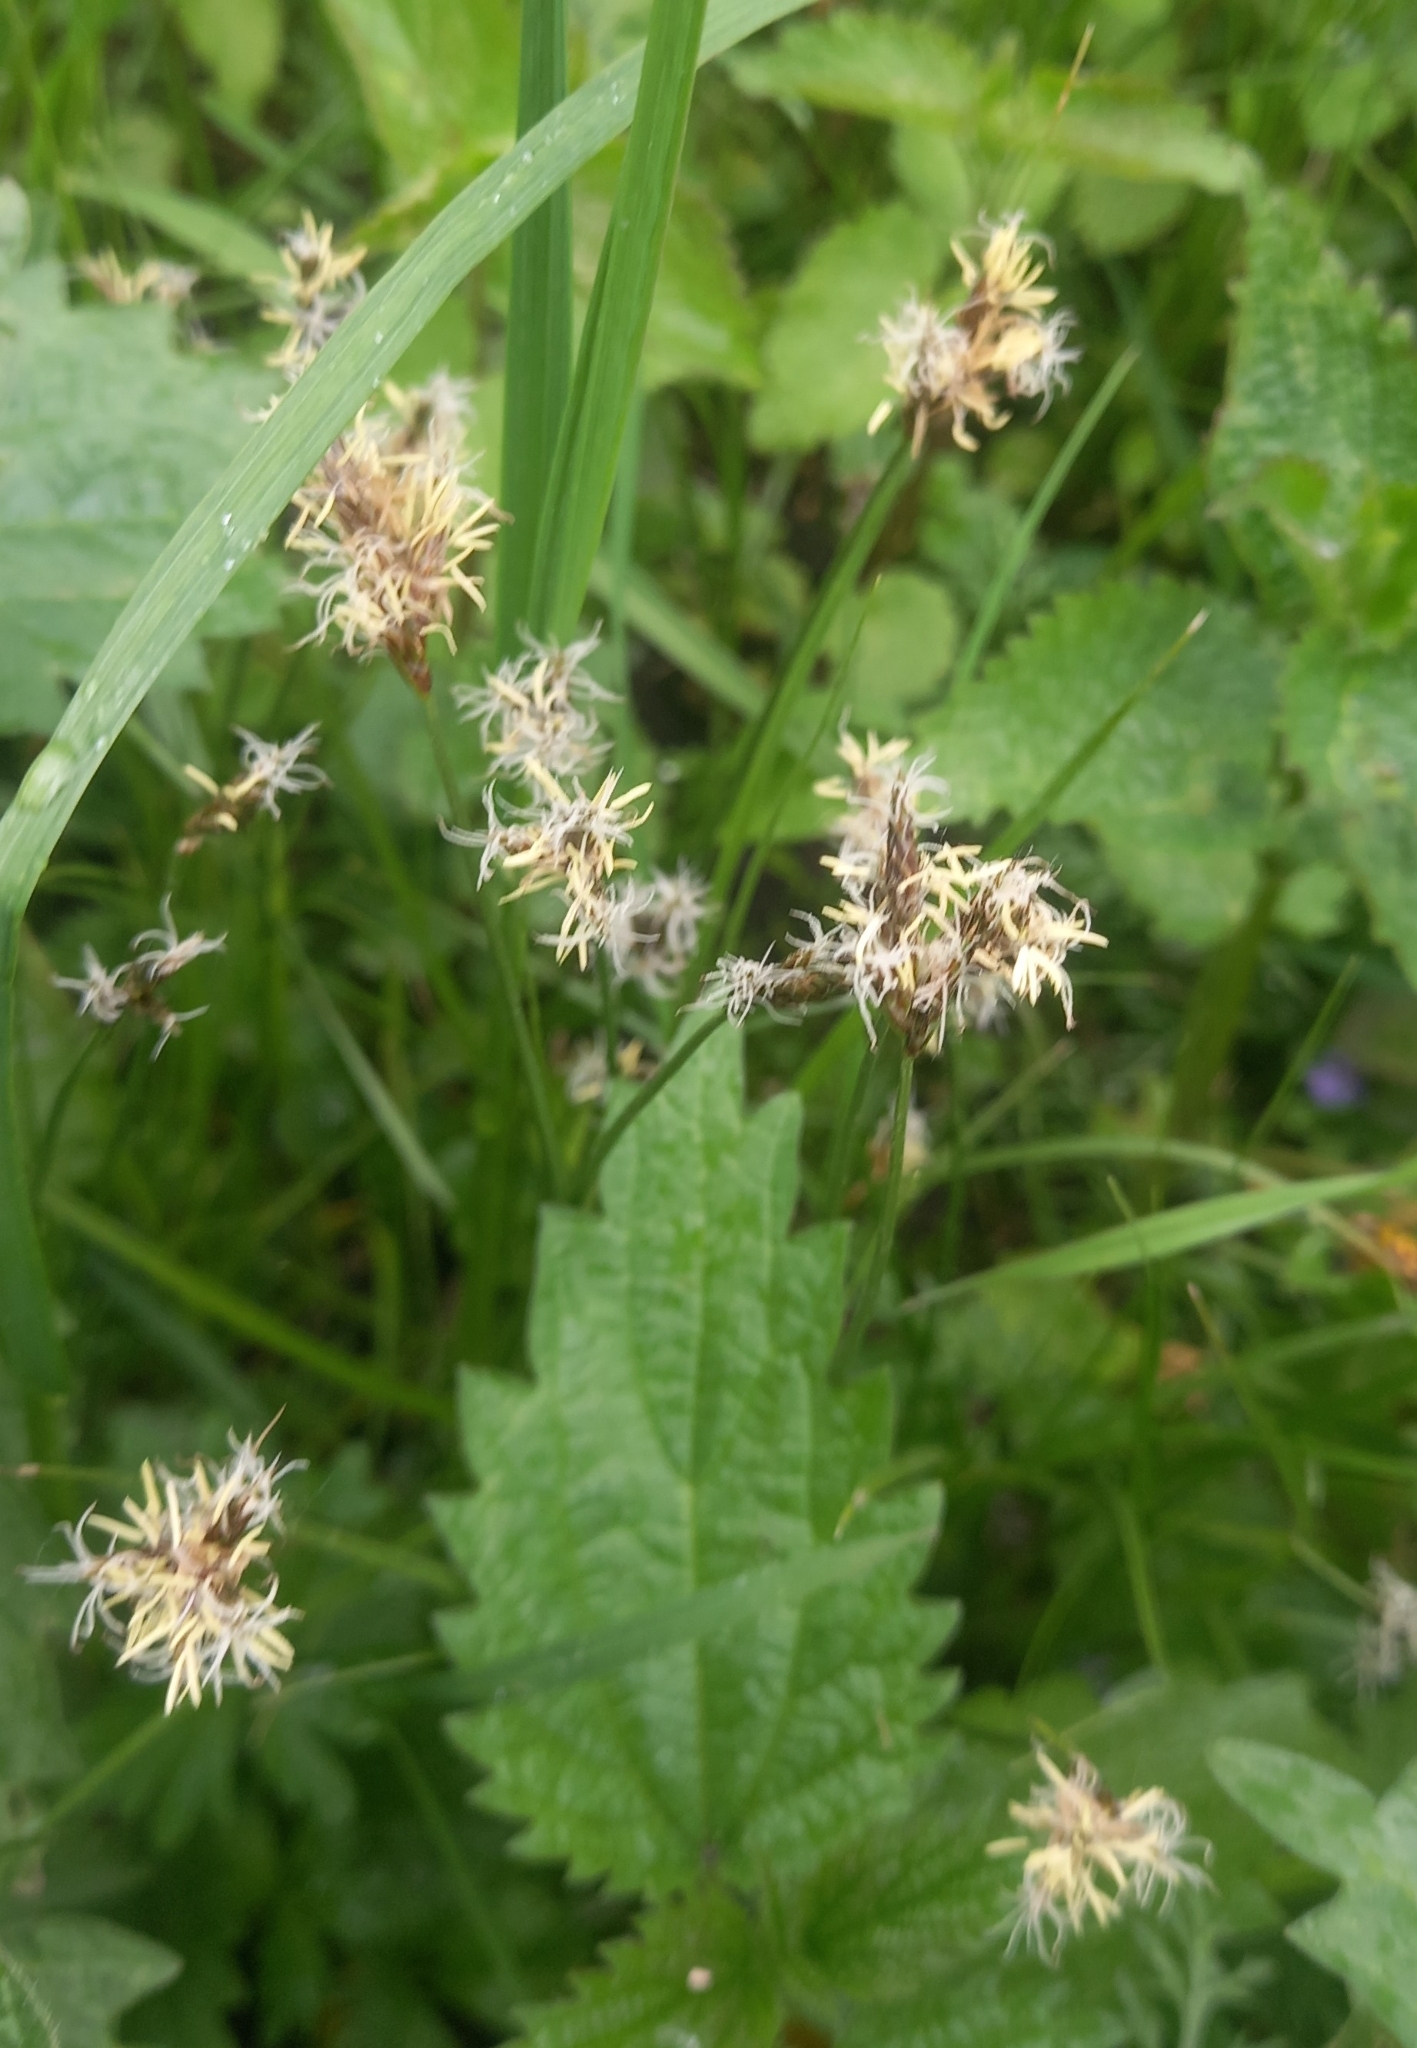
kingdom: Plantae
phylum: Tracheophyta
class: Liliopsida
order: Poales
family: Cyperaceae
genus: Carex
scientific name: Carex praecox
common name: Early sedge
